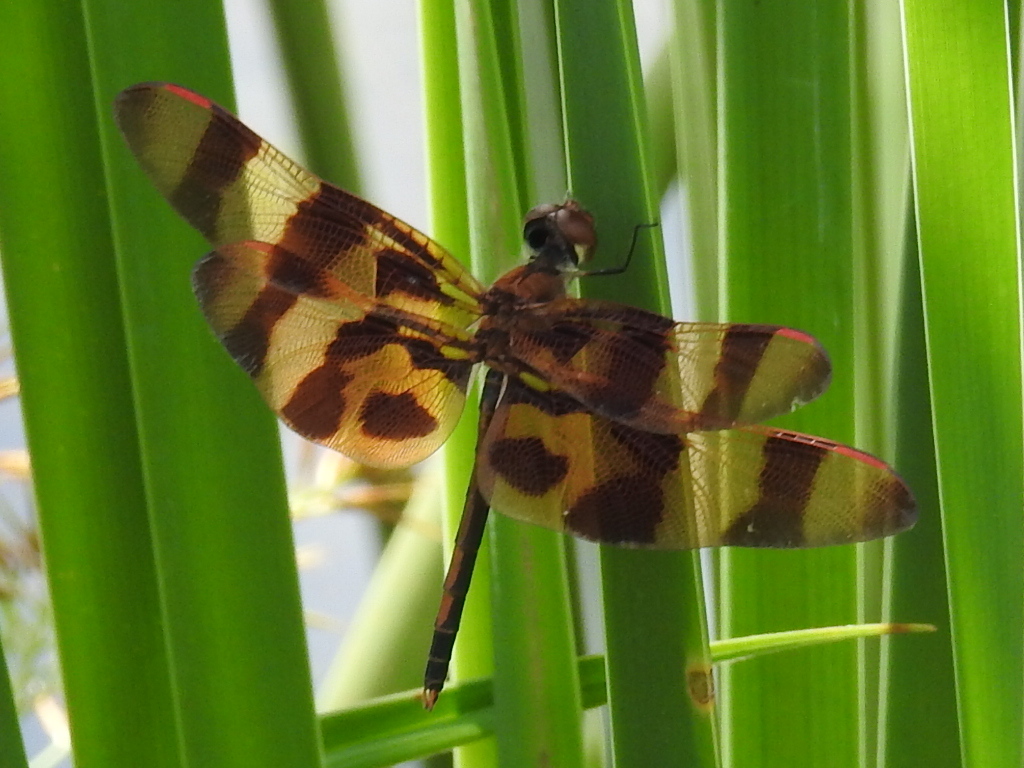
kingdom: Animalia
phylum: Arthropoda
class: Insecta
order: Odonata
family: Libellulidae
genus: Celithemis
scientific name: Celithemis eponina
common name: Halloween pennant
